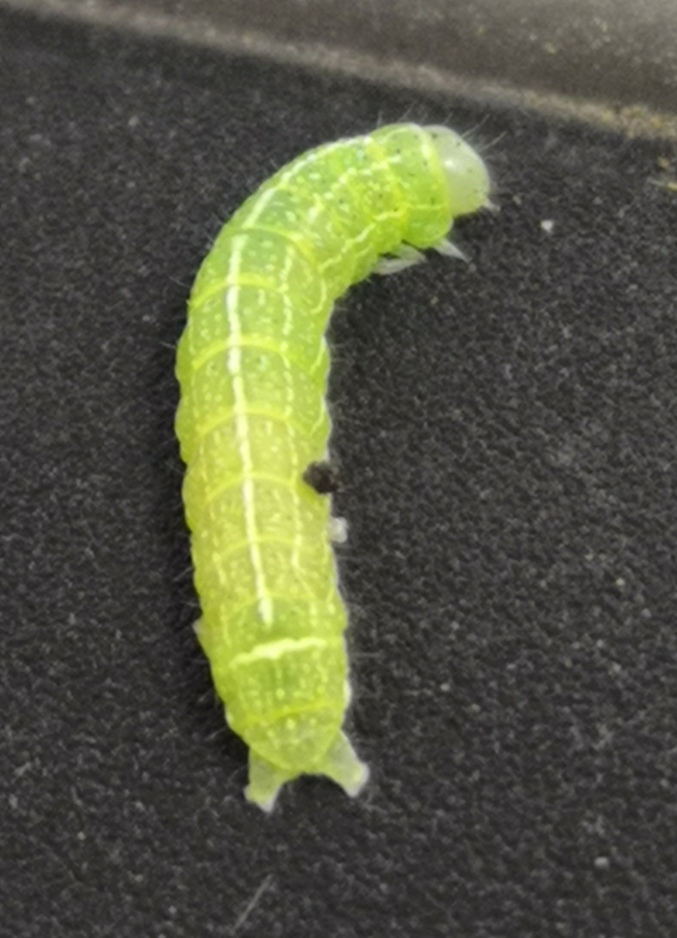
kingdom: Animalia
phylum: Arthropoda
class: Insecta
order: Lepidoptera
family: Noctuidae
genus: Orthosia
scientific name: Orthosia cerasi
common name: Common quaker
